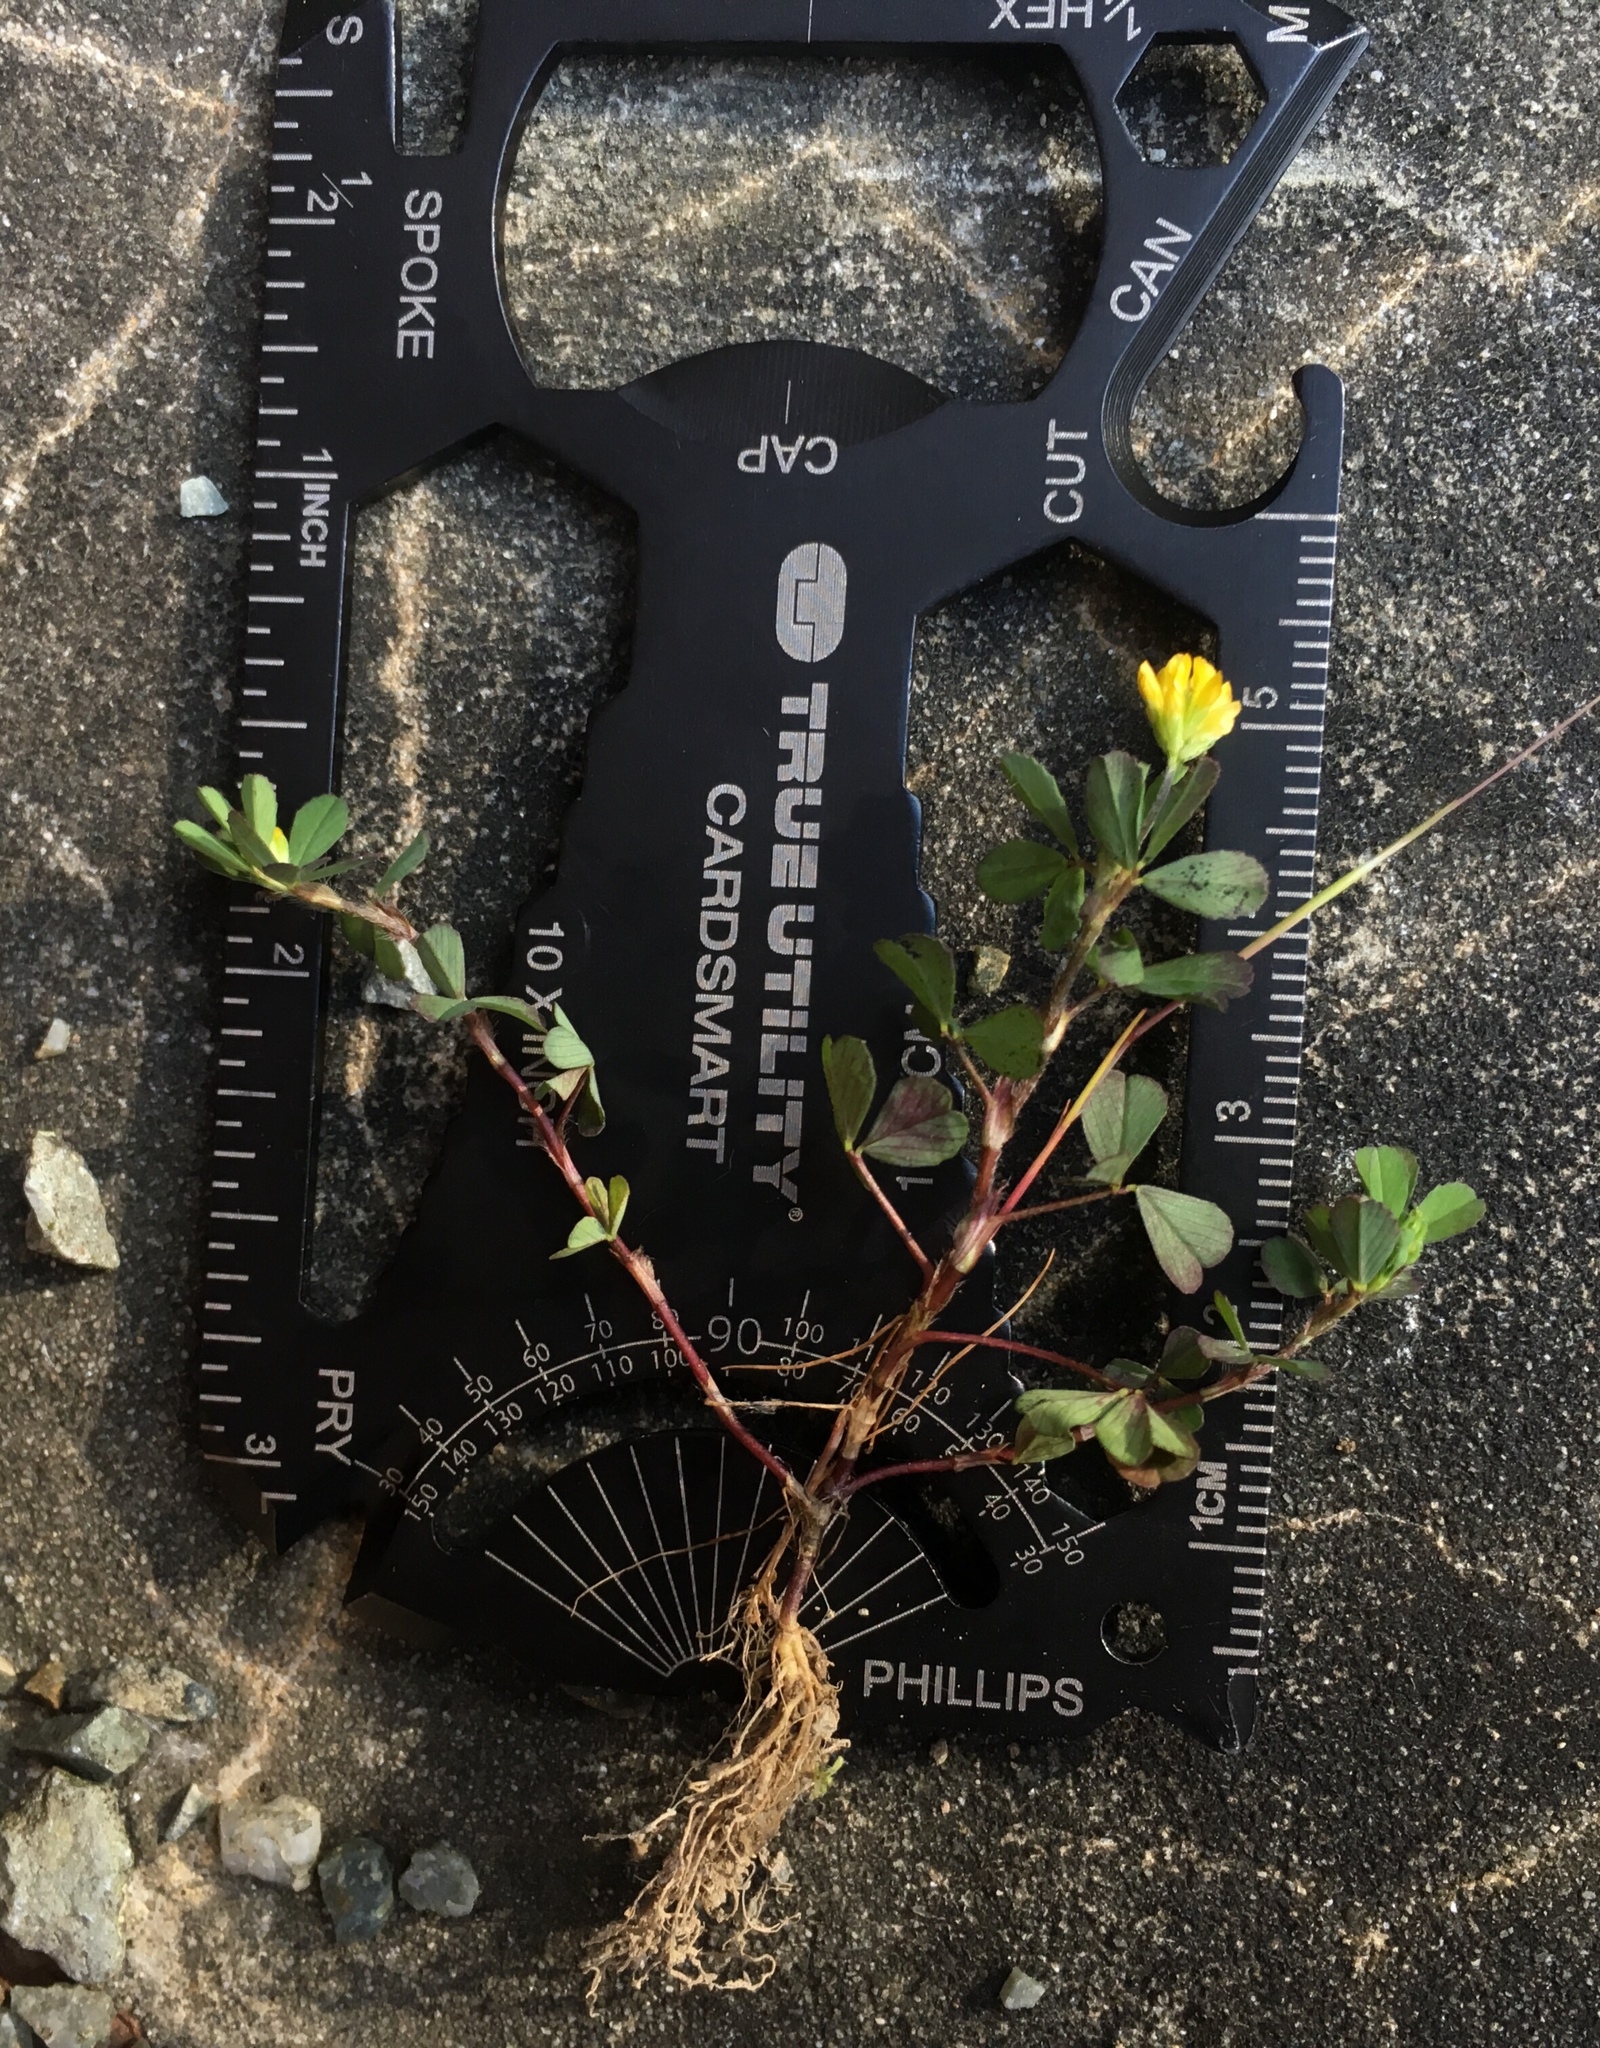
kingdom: Plantae
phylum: Tracheophyta
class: Magnoliopsida
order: Fabales
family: Fabaceae
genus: Trifolium
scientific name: Trifolium dubium
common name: Suckling clover
